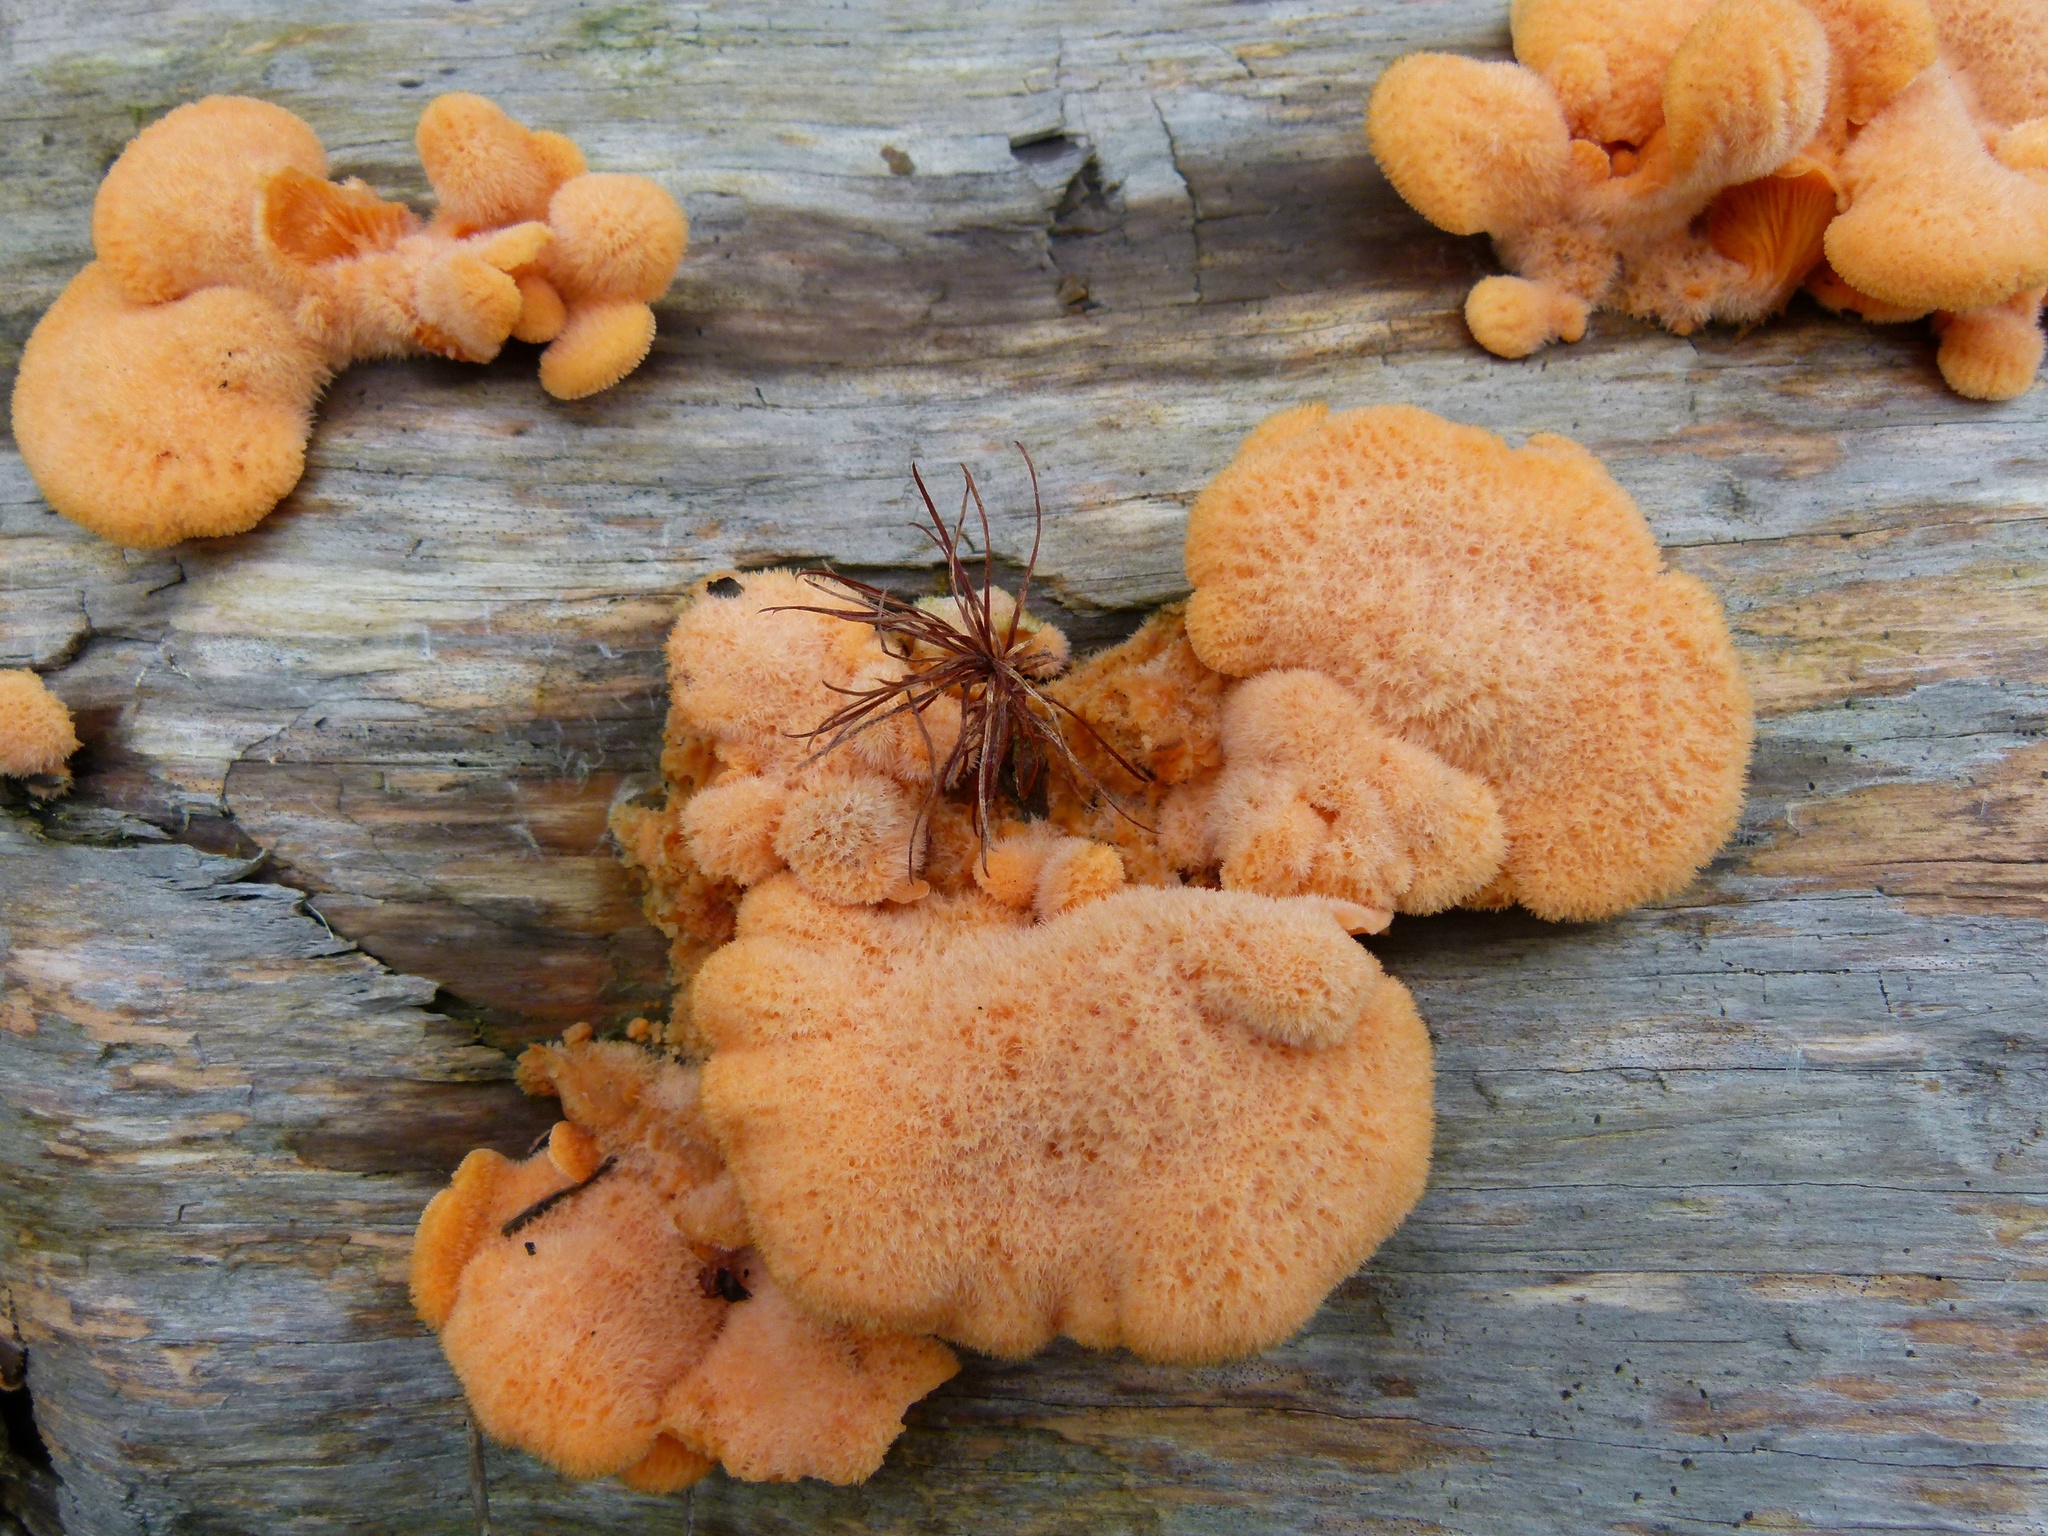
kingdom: Fungi
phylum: Basidiomycota
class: Agaricomycetes
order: Agaricales
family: Phyllotopsidaceae
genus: Phyllotopsis
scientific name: Phyllotopsis nidulans
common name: Orange mock oyster
